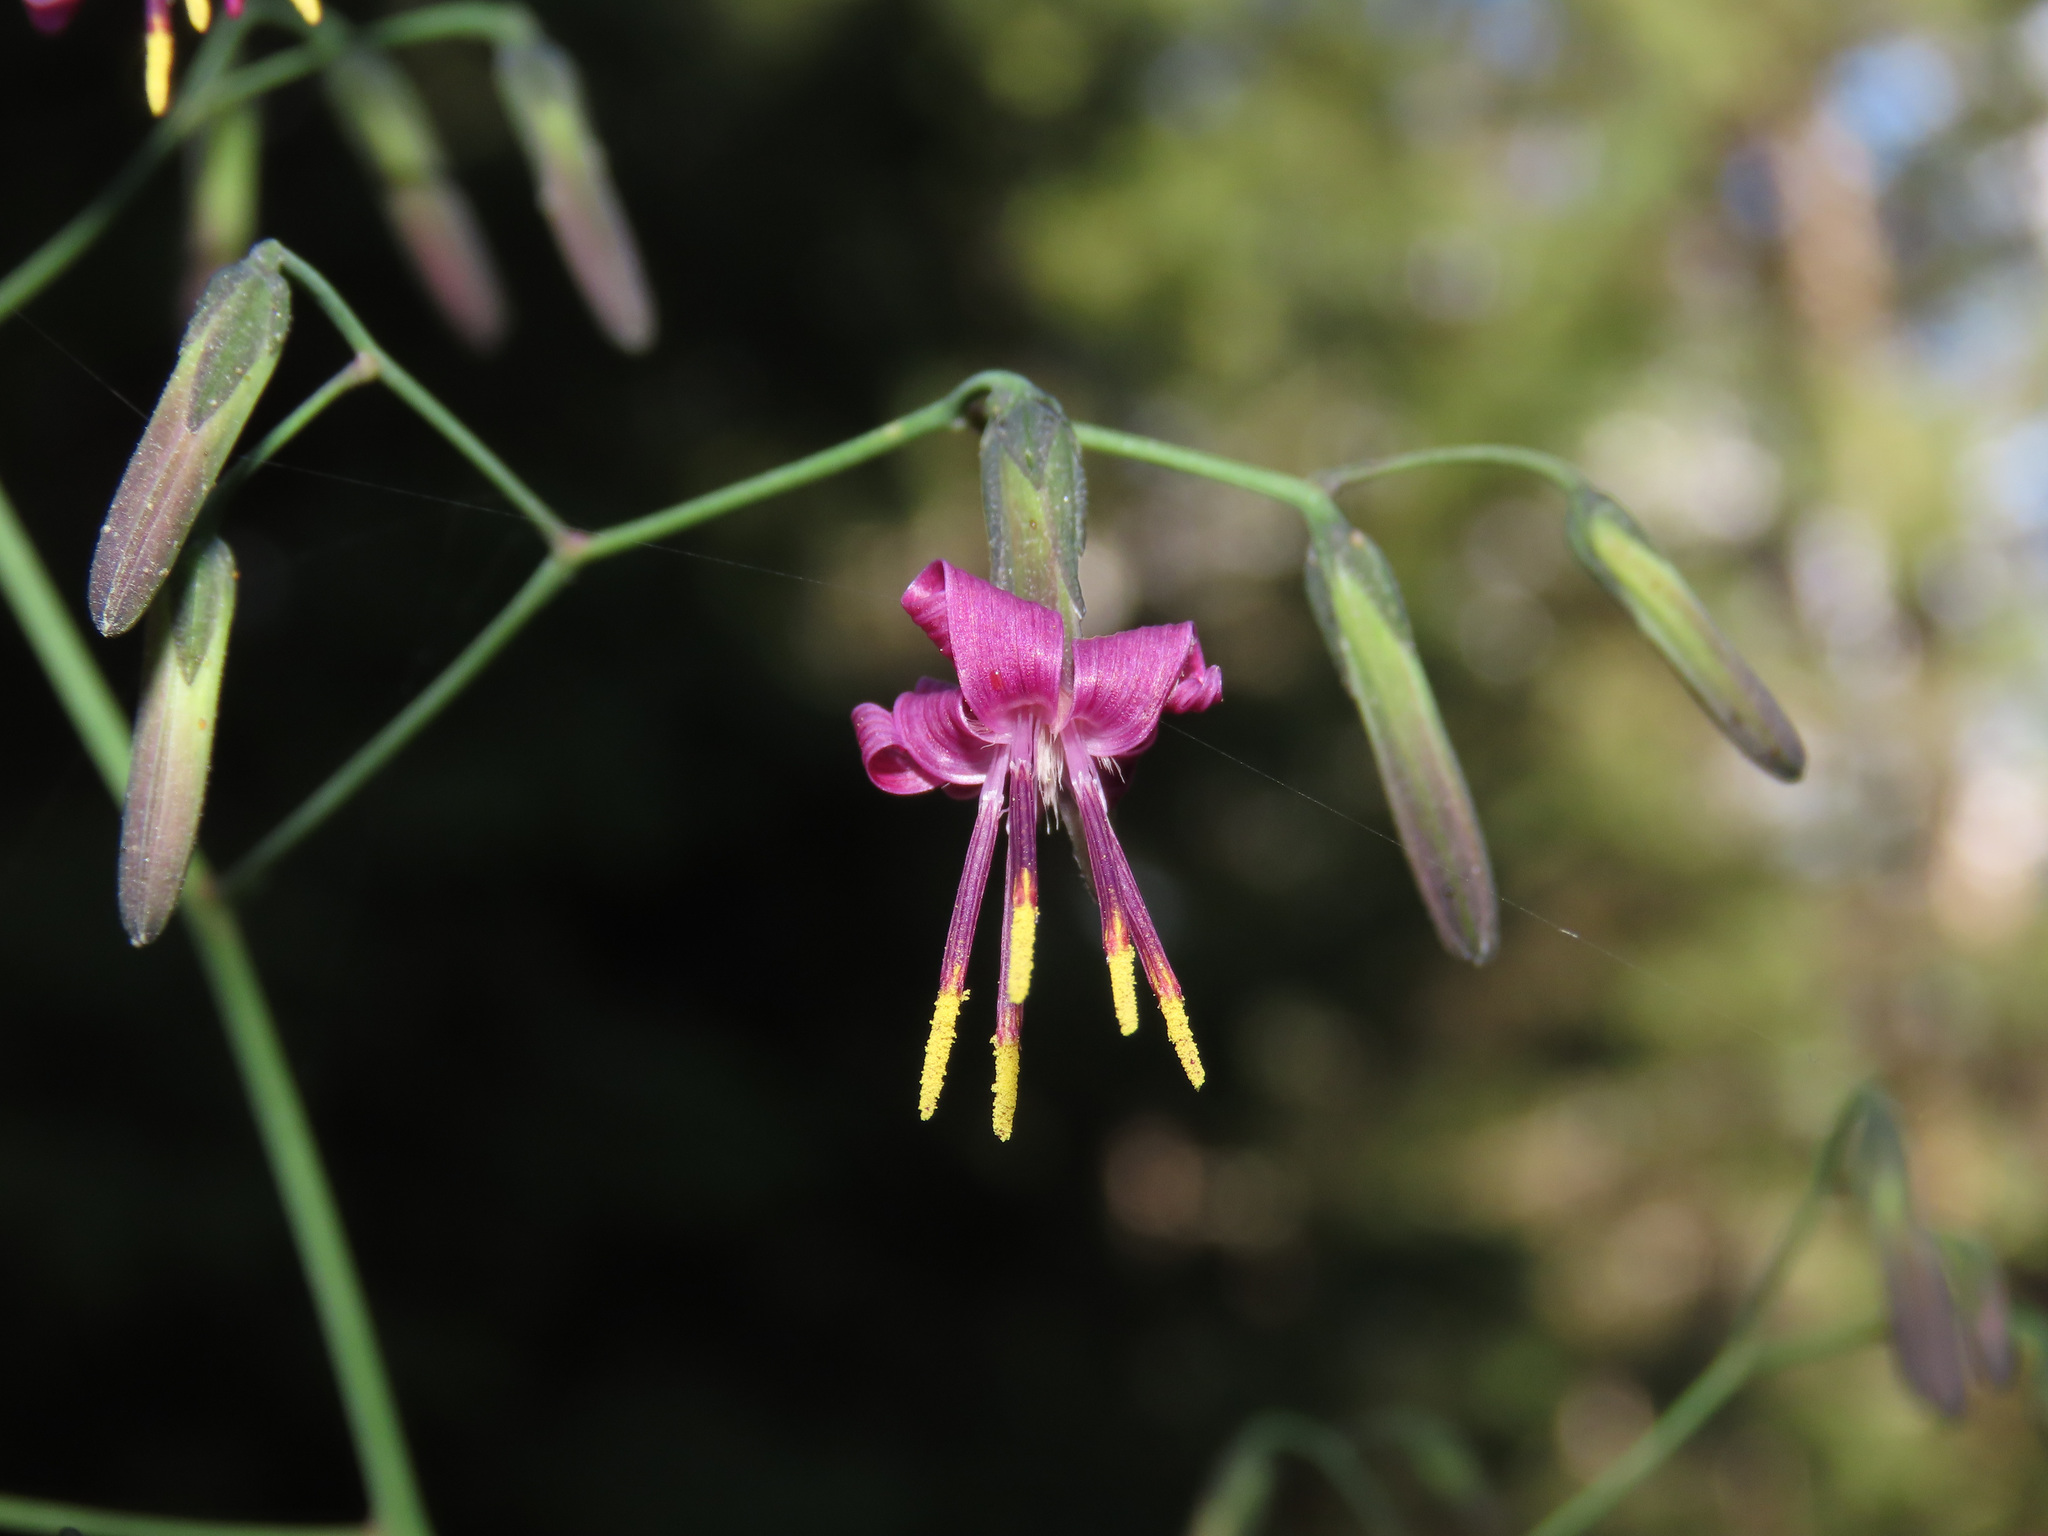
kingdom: Plantae
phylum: Tracheophyta
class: Magnoliopsida
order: Asterales
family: Asteraceae
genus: Prenanthes
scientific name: Prenanthes purpurea
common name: Purple lettuce
